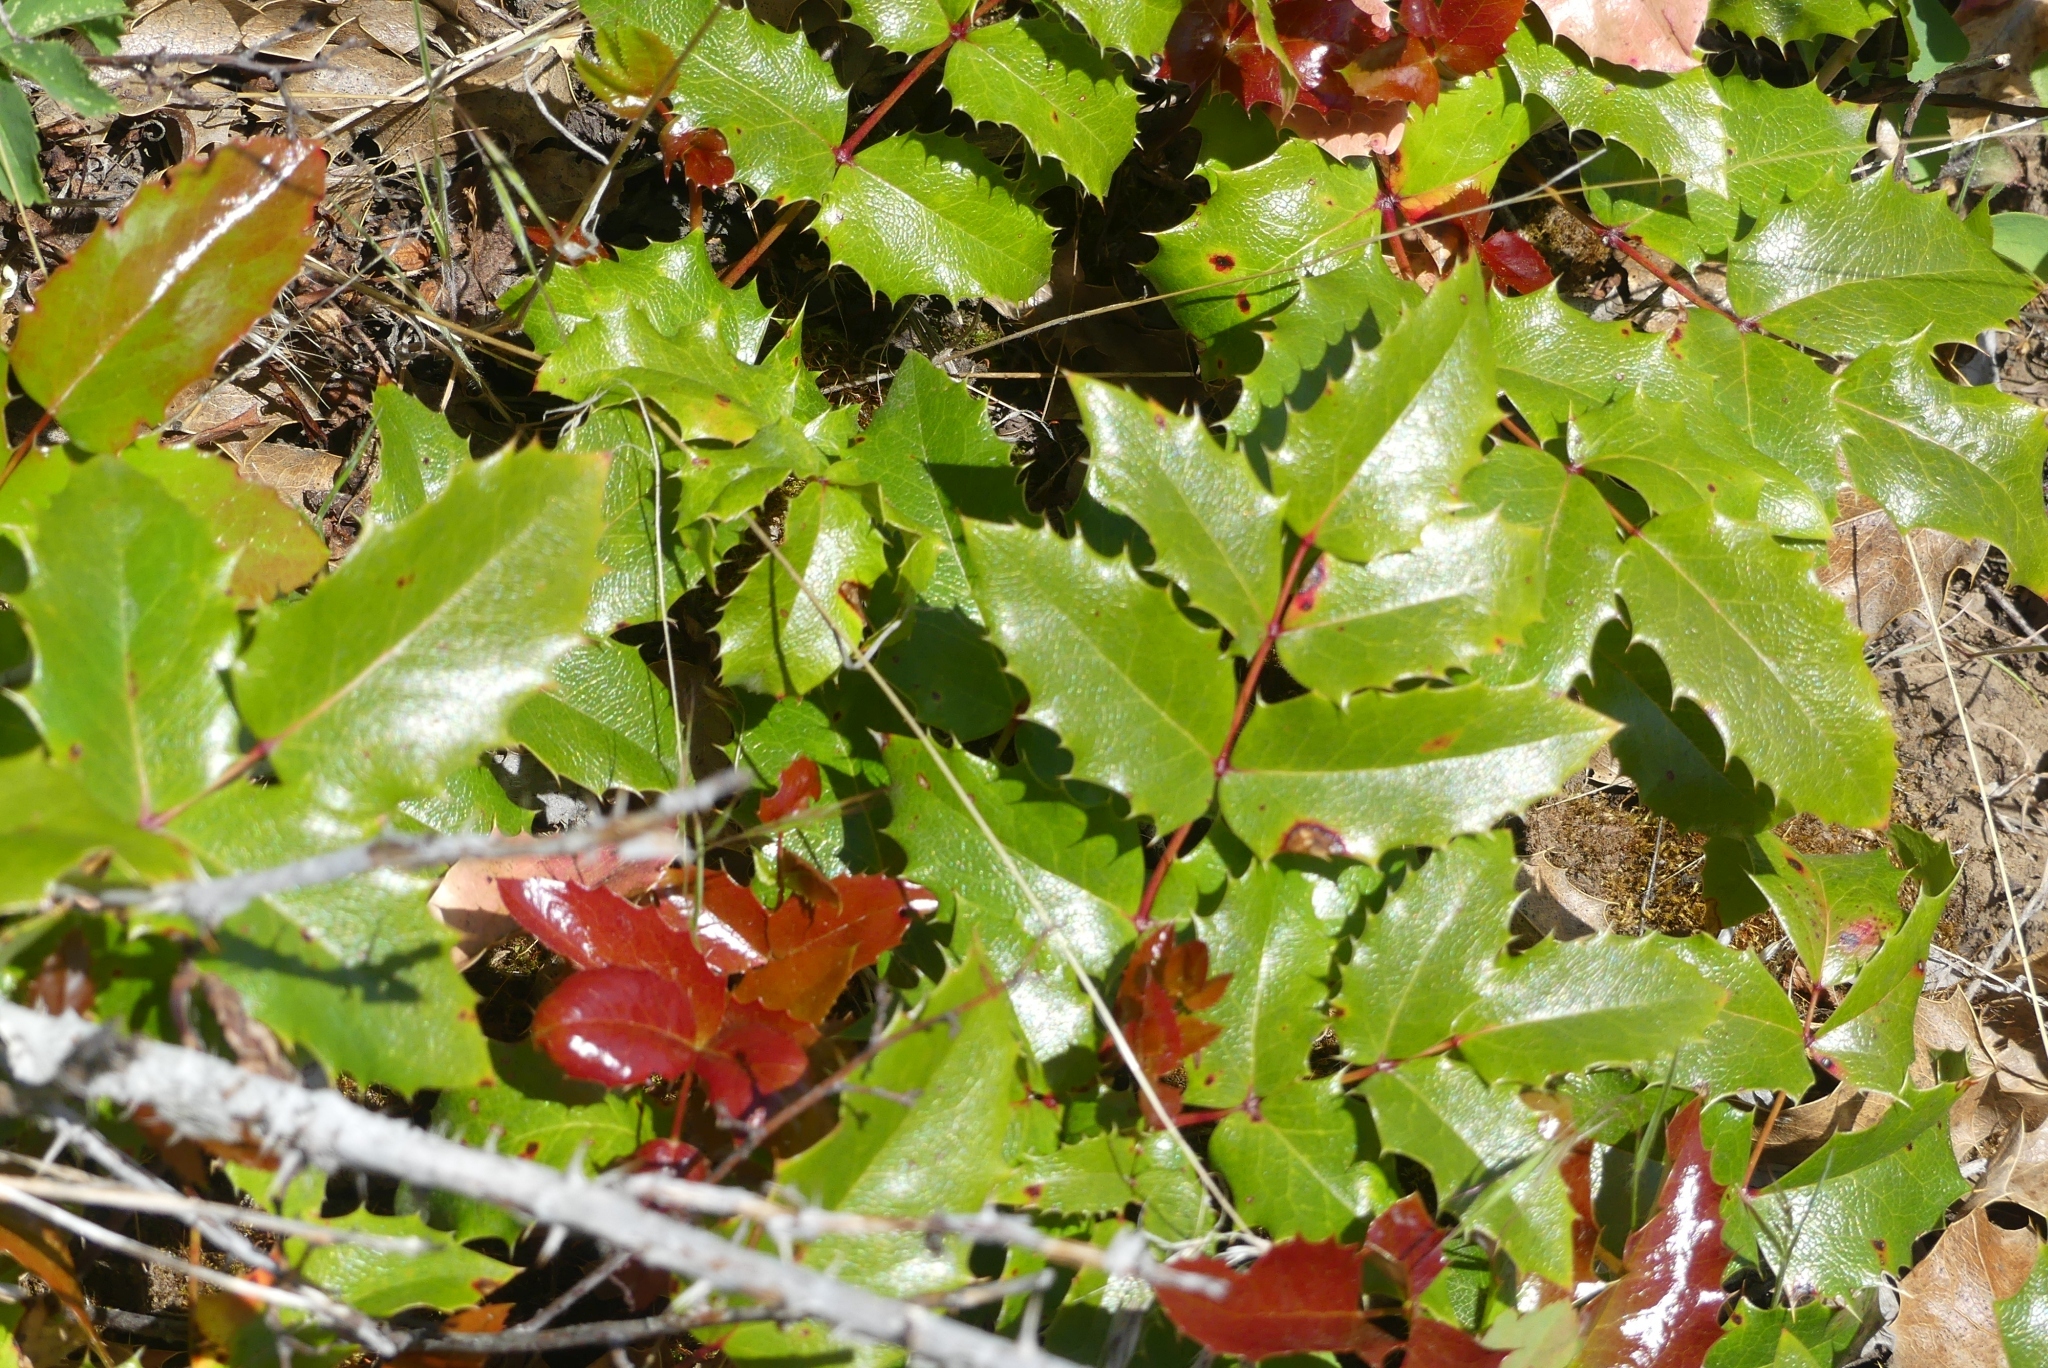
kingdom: Plantae
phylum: Tracheophyta
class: Magnoliopsida
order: Ranunculales
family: Berberidaceae
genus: Mahonia
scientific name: Mahonia aquifolium
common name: Oregon-grape
